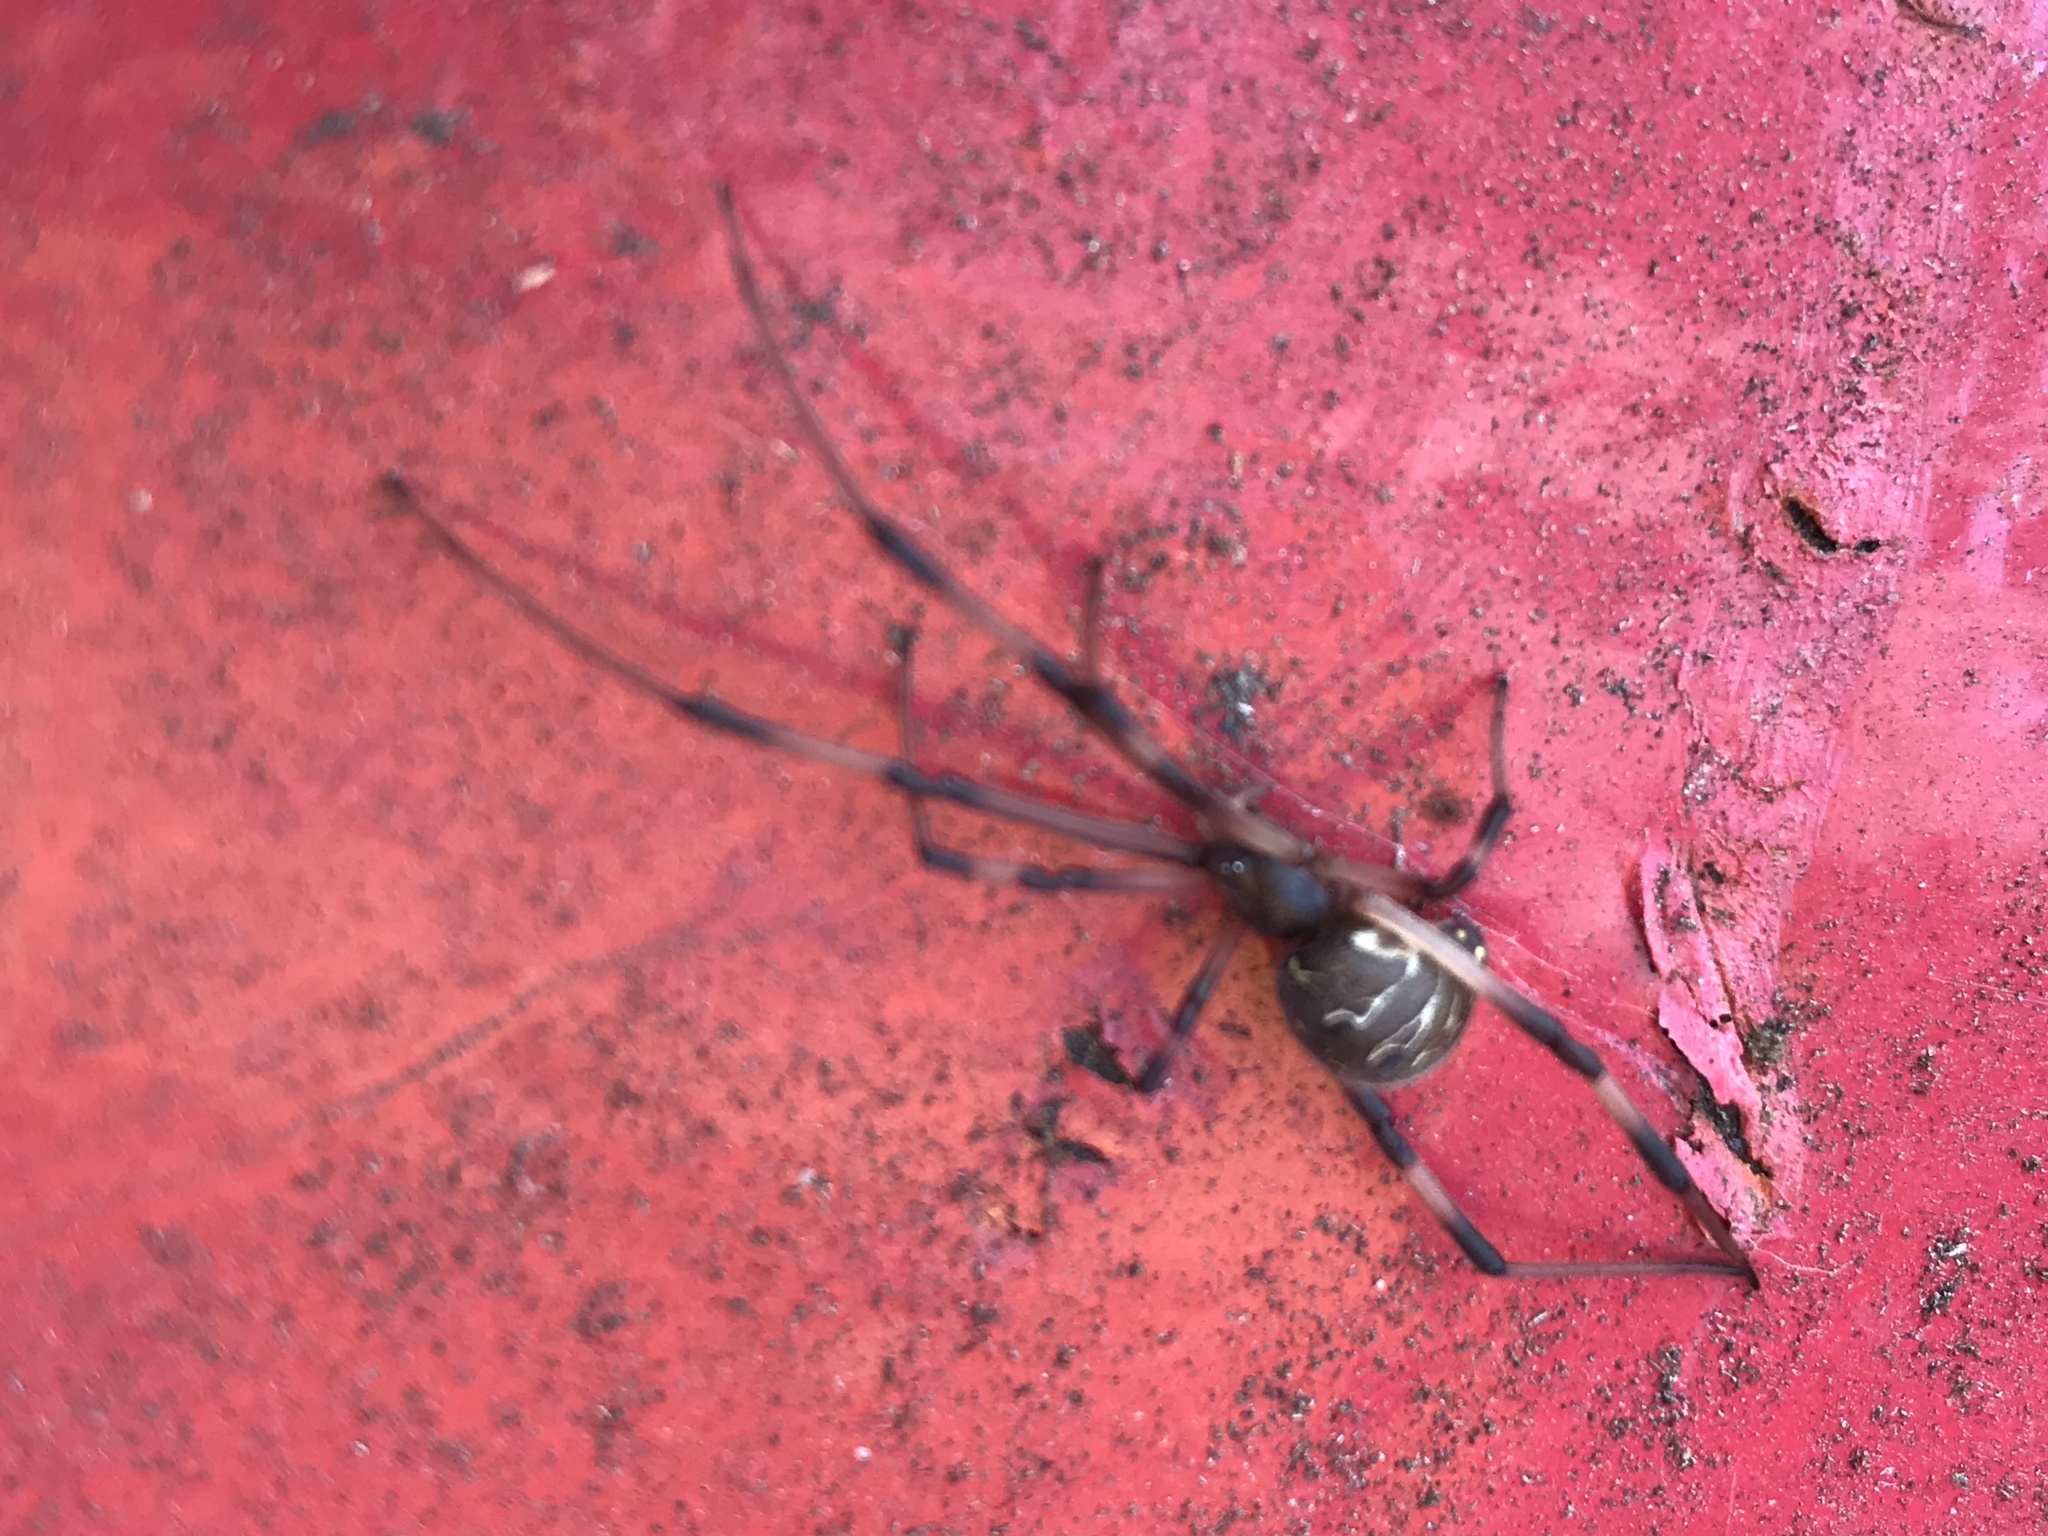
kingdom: Animalia
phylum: Arthropoda
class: Arachnida
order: Araneae
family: Theridiidae
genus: Latrodectus
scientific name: Latrodectus geometricus
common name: Brown widow spider
